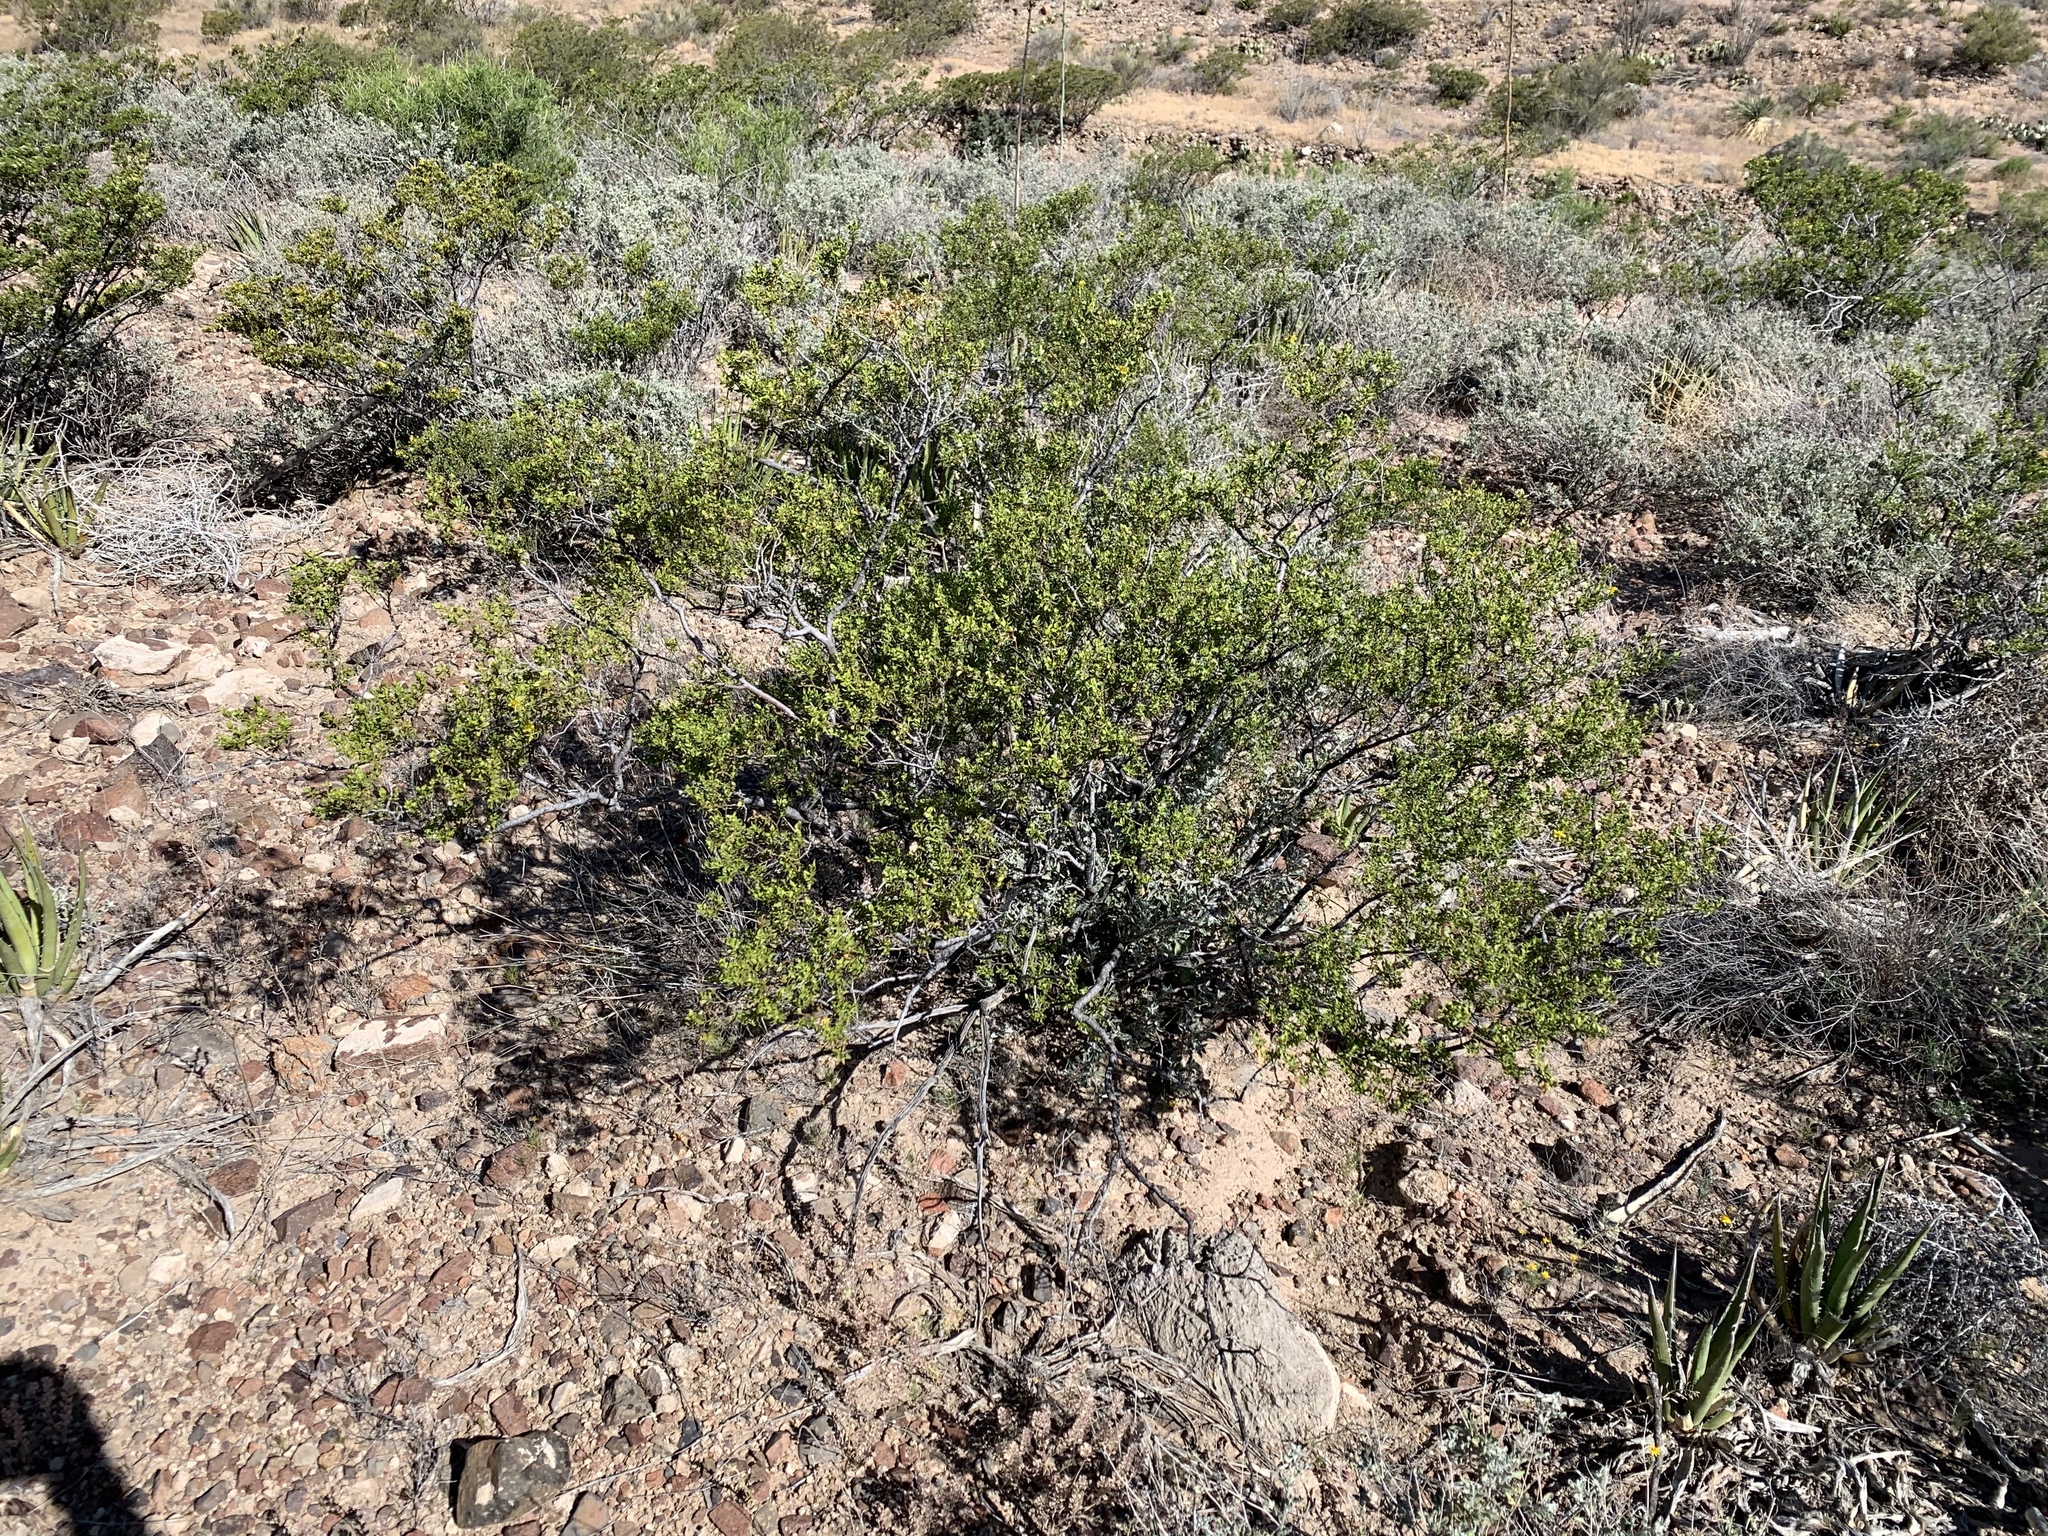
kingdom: Plantae
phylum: Tracheophyta
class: Magnoliopsida
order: Zygophyllales
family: Zygophyllaceae
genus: Larrea
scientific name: Larrea tridentata
